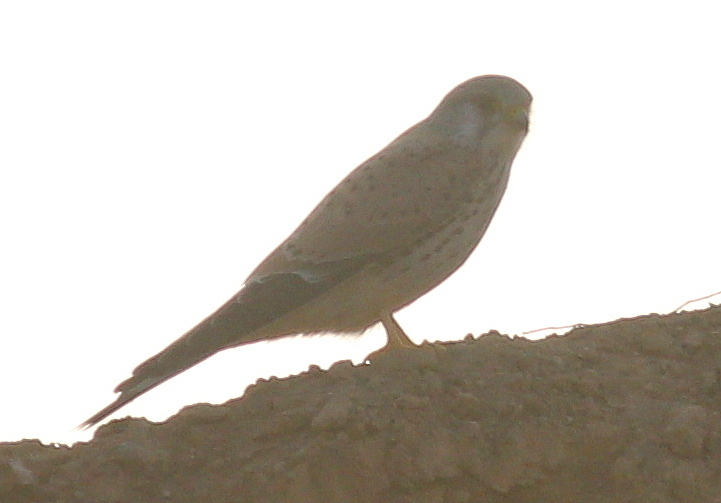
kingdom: Animalia
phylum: Chordata
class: Aves
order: Falconiformes
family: Falconidae
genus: Falco
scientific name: Falco tinnunculus
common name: Common kestrel
